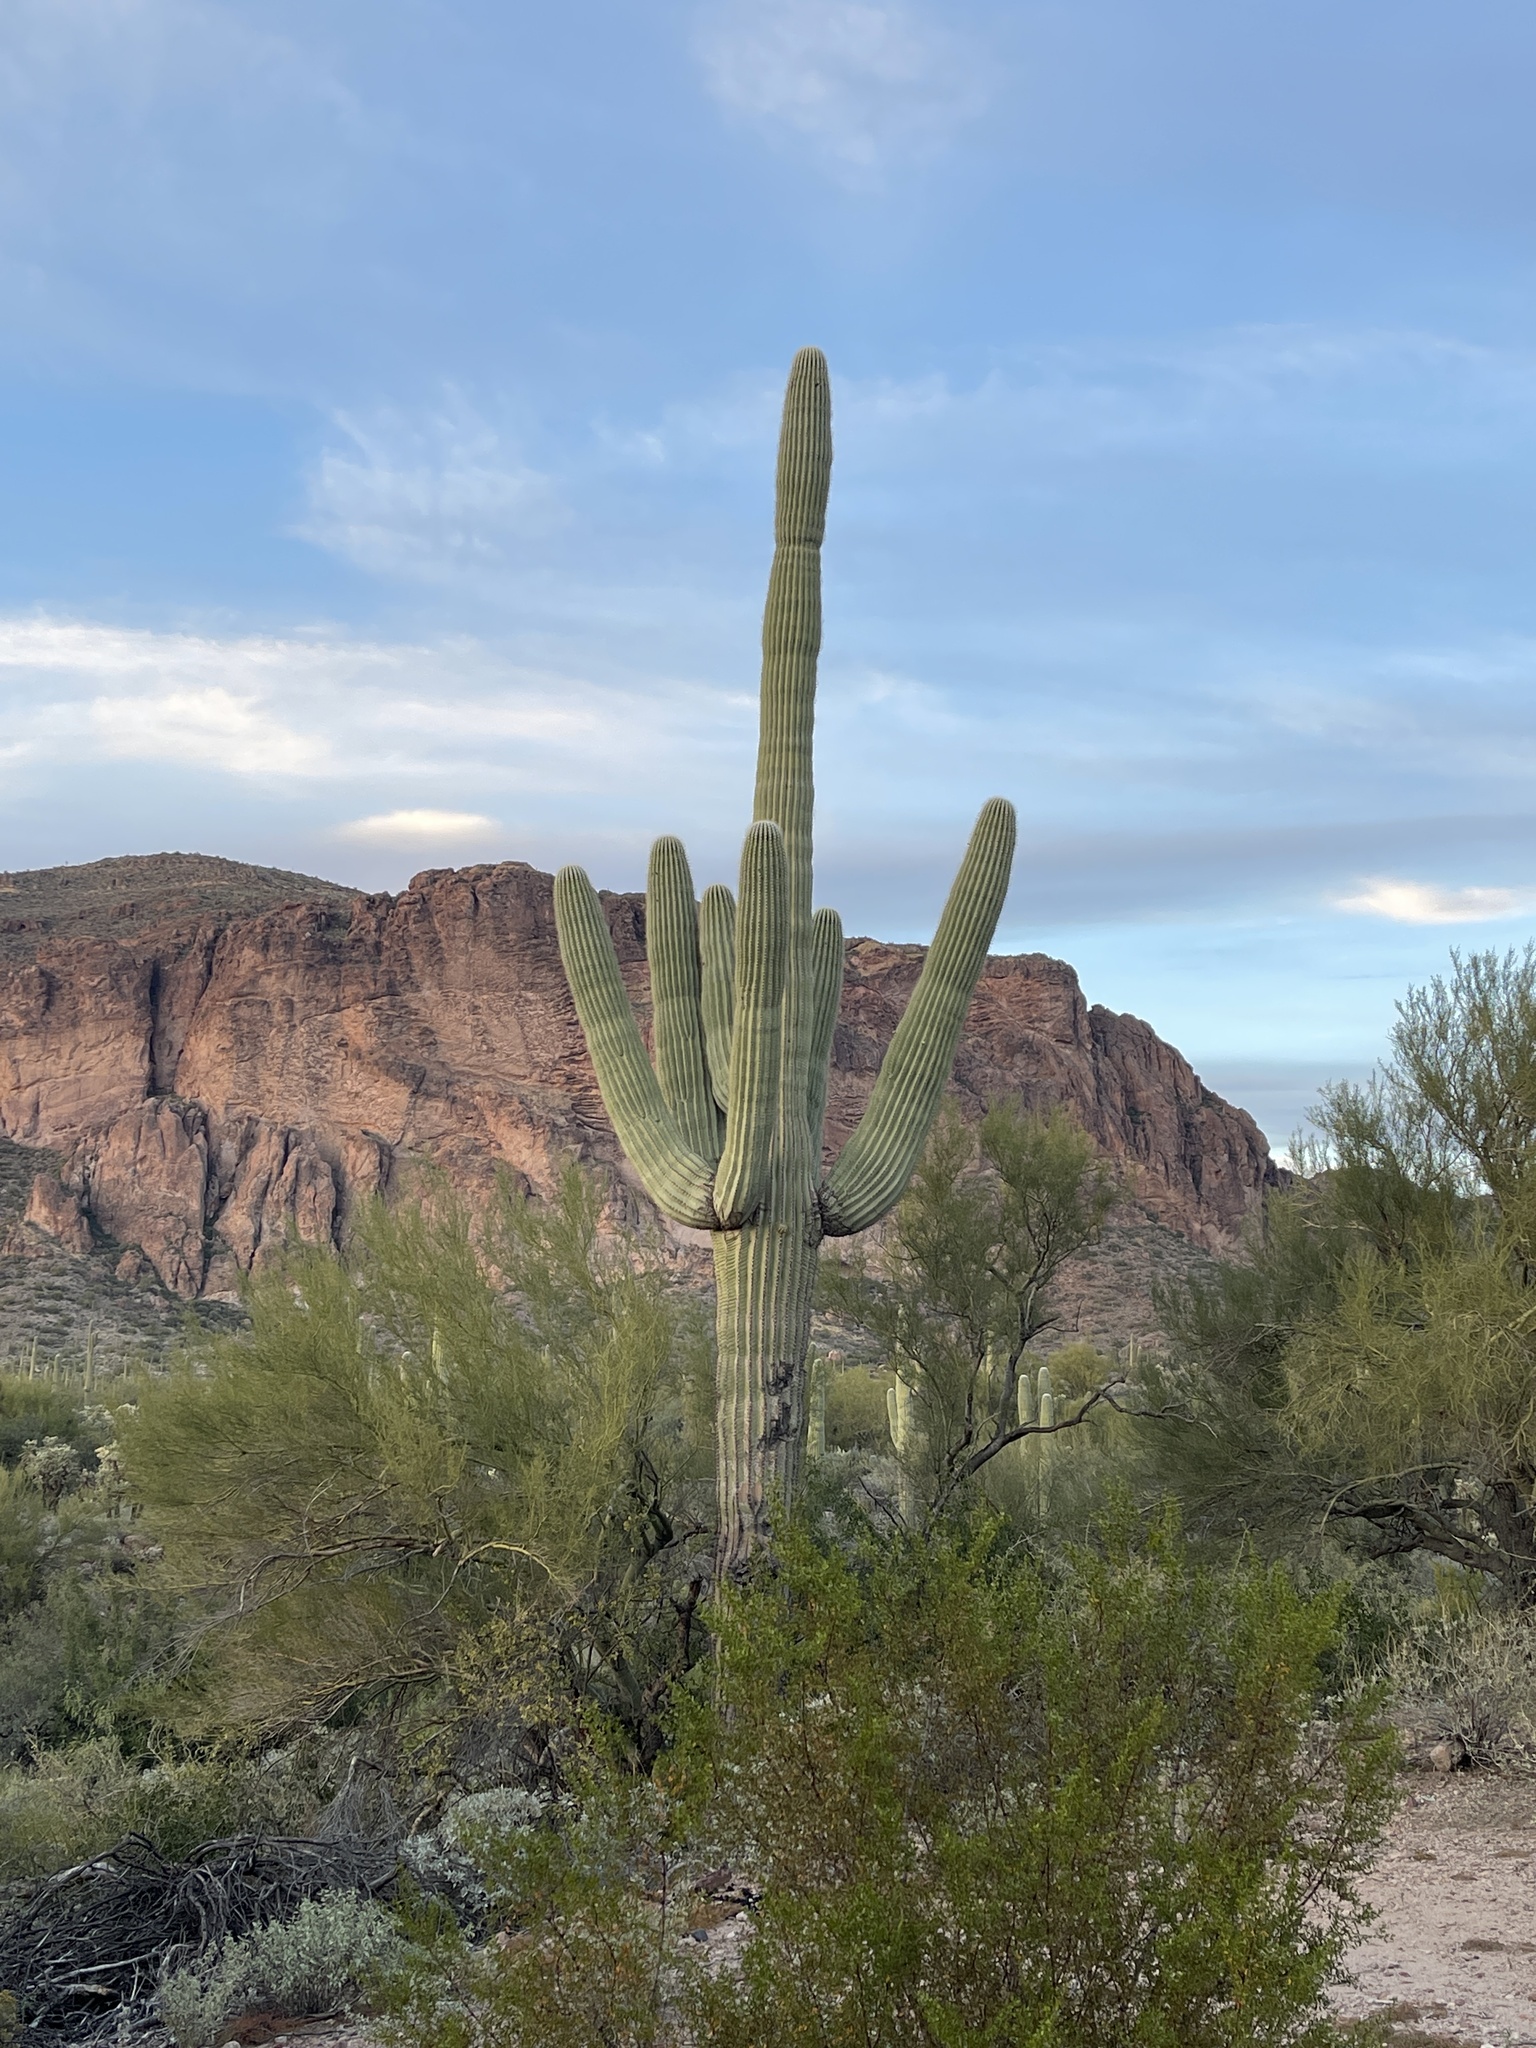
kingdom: Plantae
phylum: Tracheophyta
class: Magnoliopsida
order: Caryophyllales
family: Cactaceae
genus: Carnegiea
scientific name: Carnegiea gigantea
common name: Saguaro
